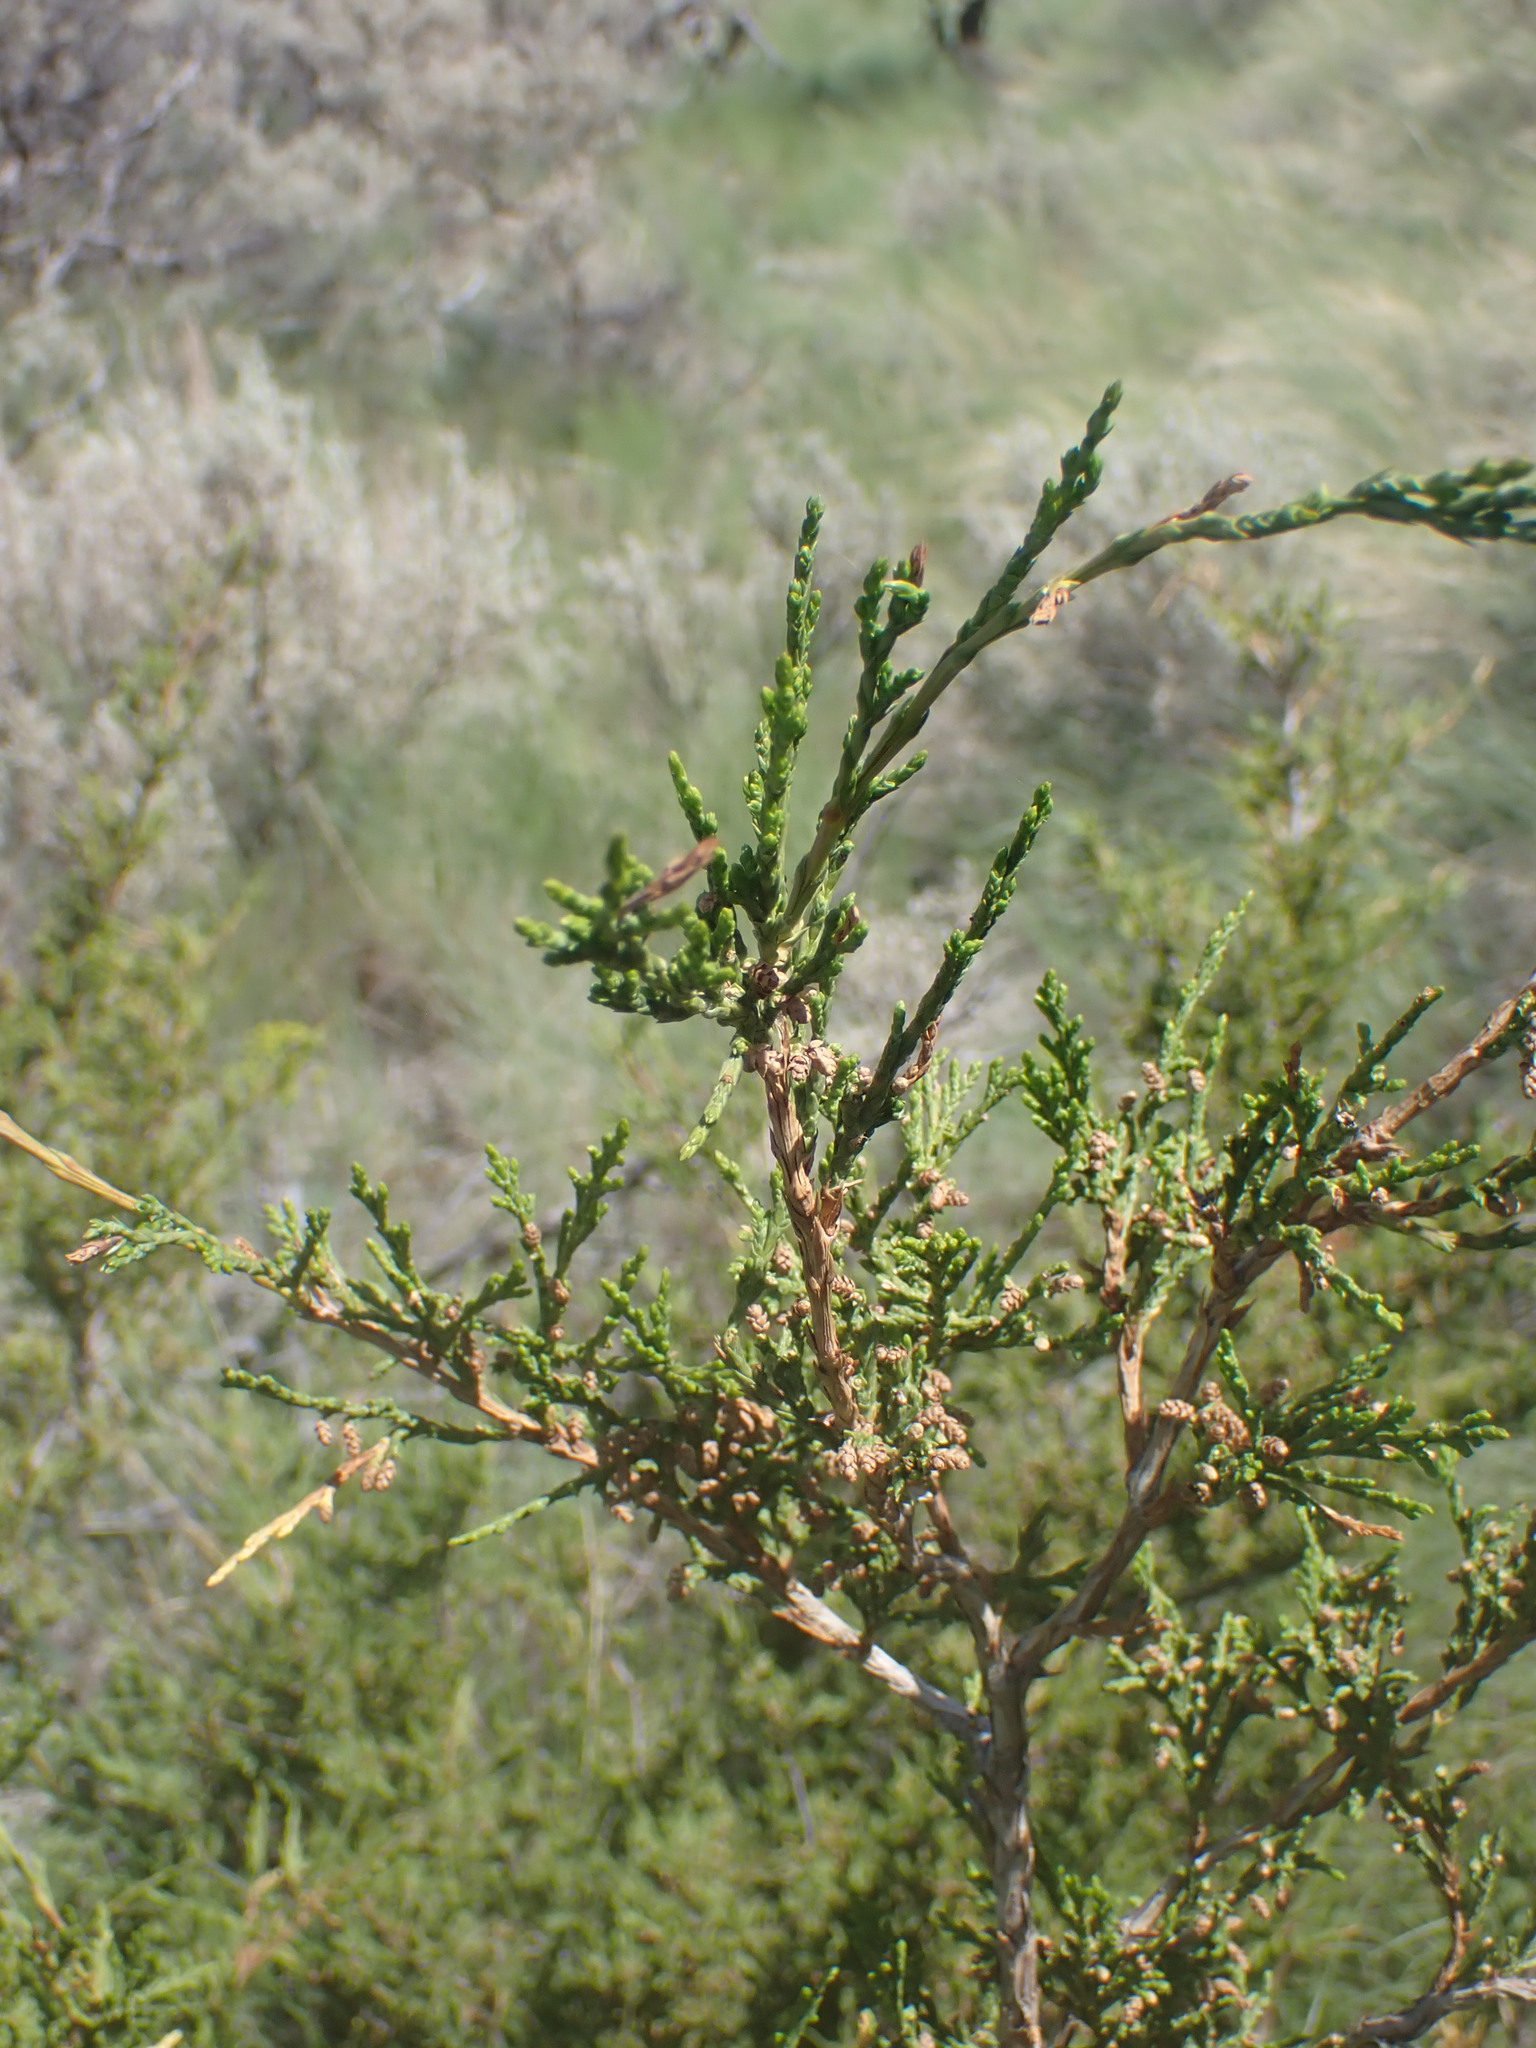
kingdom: Plantae
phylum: Tracheophyta
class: Pinopsida
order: Pinales
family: Cupressaceae
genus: Juniperus
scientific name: Juniperus scopulorum
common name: Rocky mountain juniper
